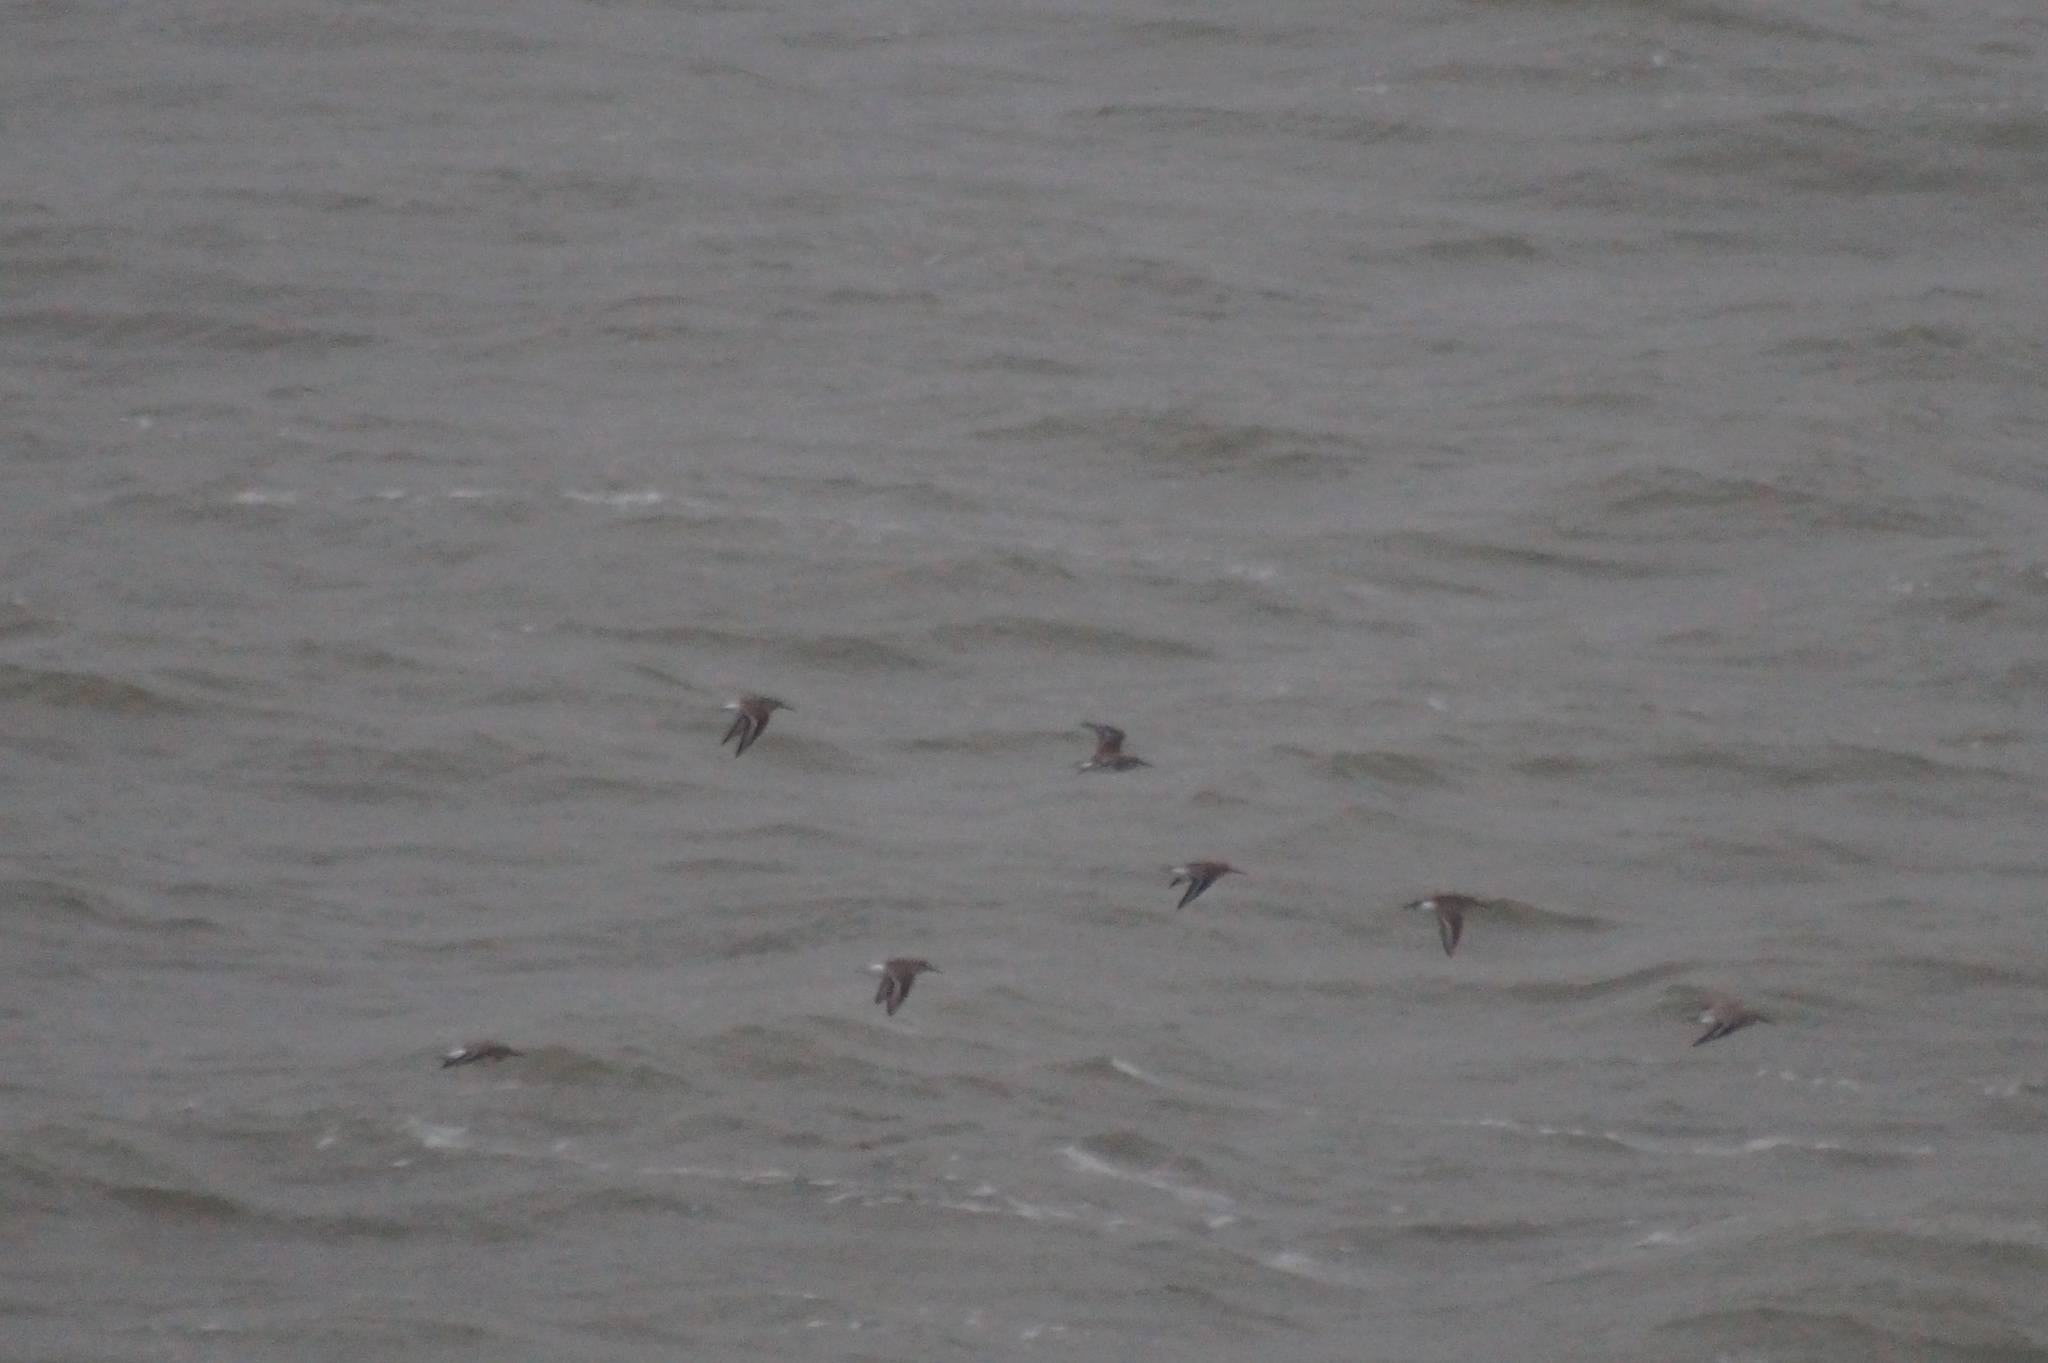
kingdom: Animalia
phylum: Chordata
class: Aves
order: Charadriiformes
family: Scolopacidae
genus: Calidris
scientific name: Calidris alpina
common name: Dunlin
